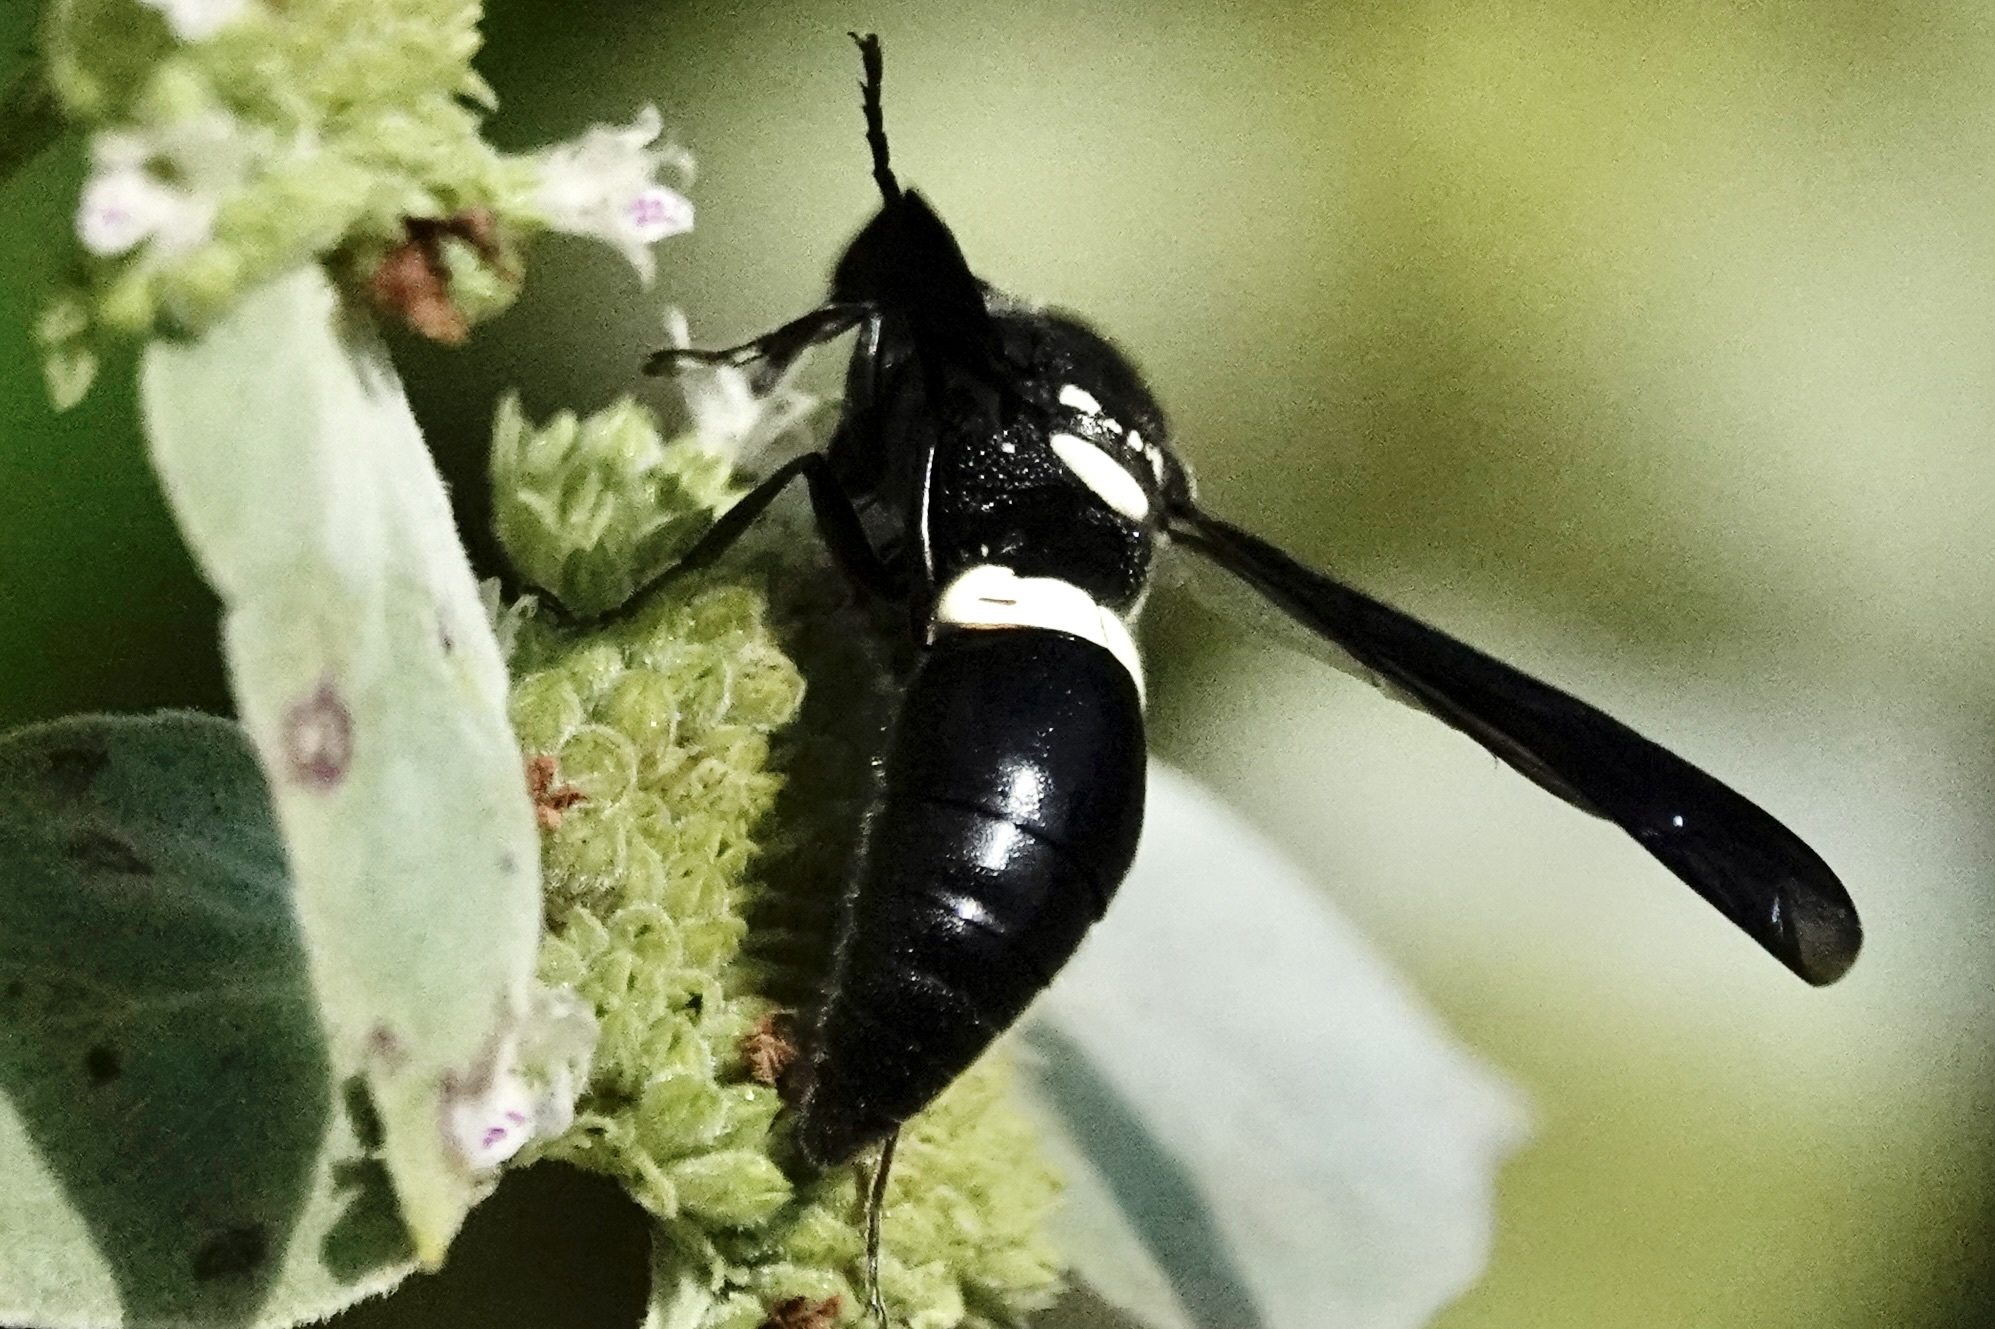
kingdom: Animalia
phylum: Arthropoda
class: Insecta
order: Hymenoptera
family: Eumenidae
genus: Monobia
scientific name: Monobia quadridens
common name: Four-toothed mason wasp
